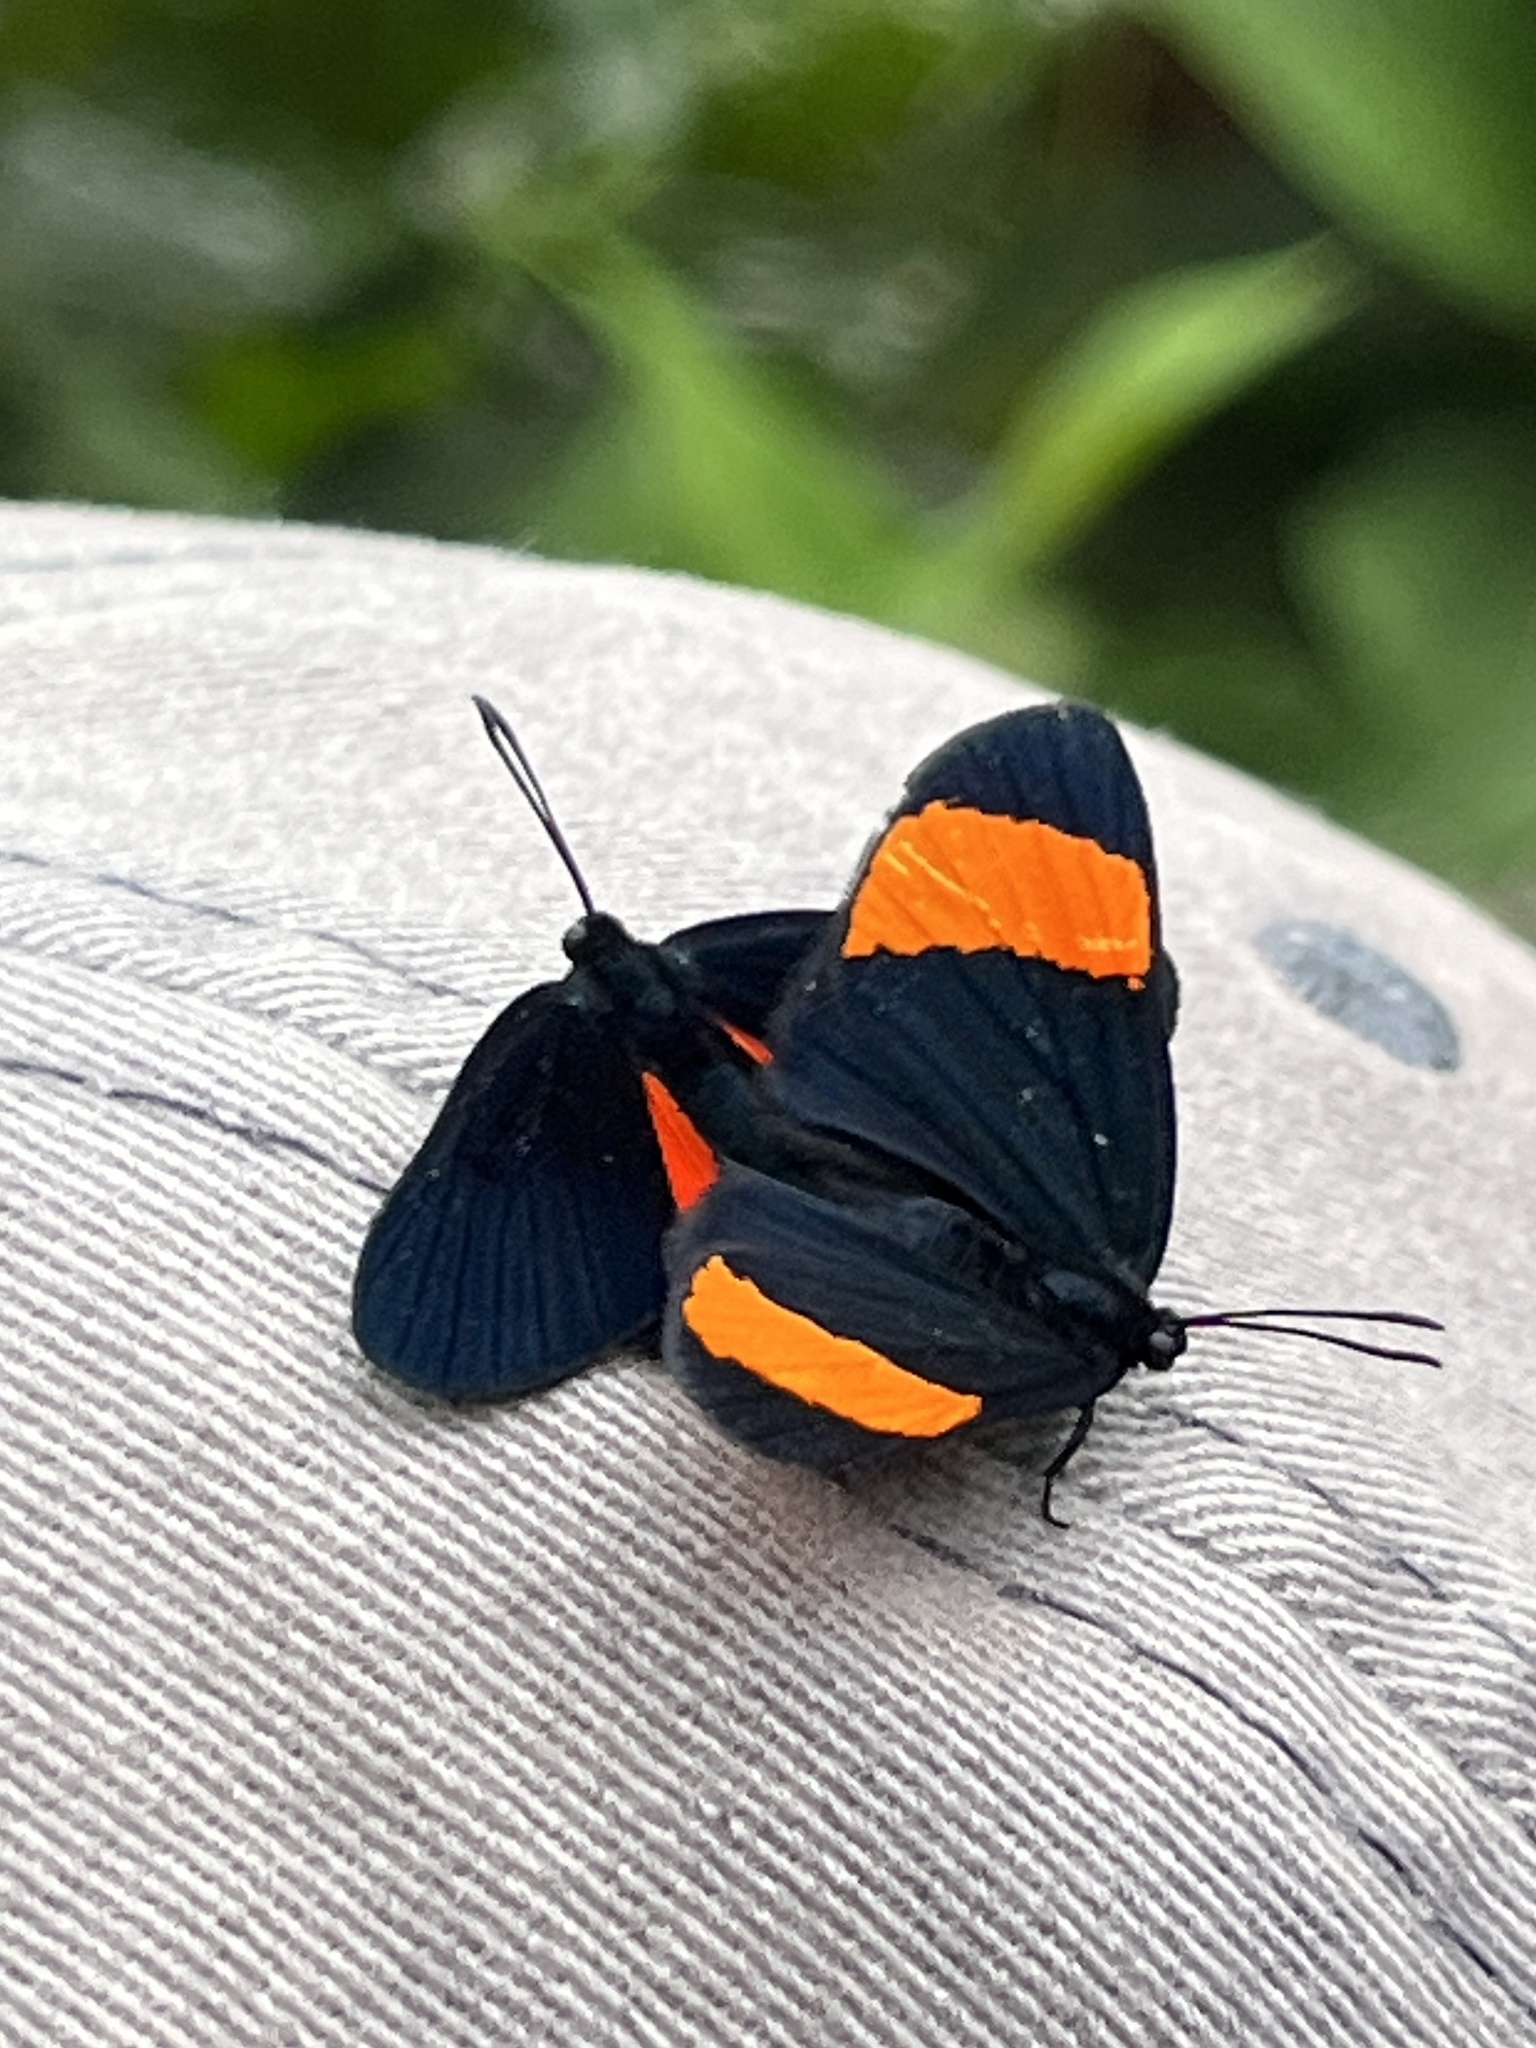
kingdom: Animalia
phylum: Arthropoda
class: Insecta
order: Lepidoptera
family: Riodinidae
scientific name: Riodinidae
